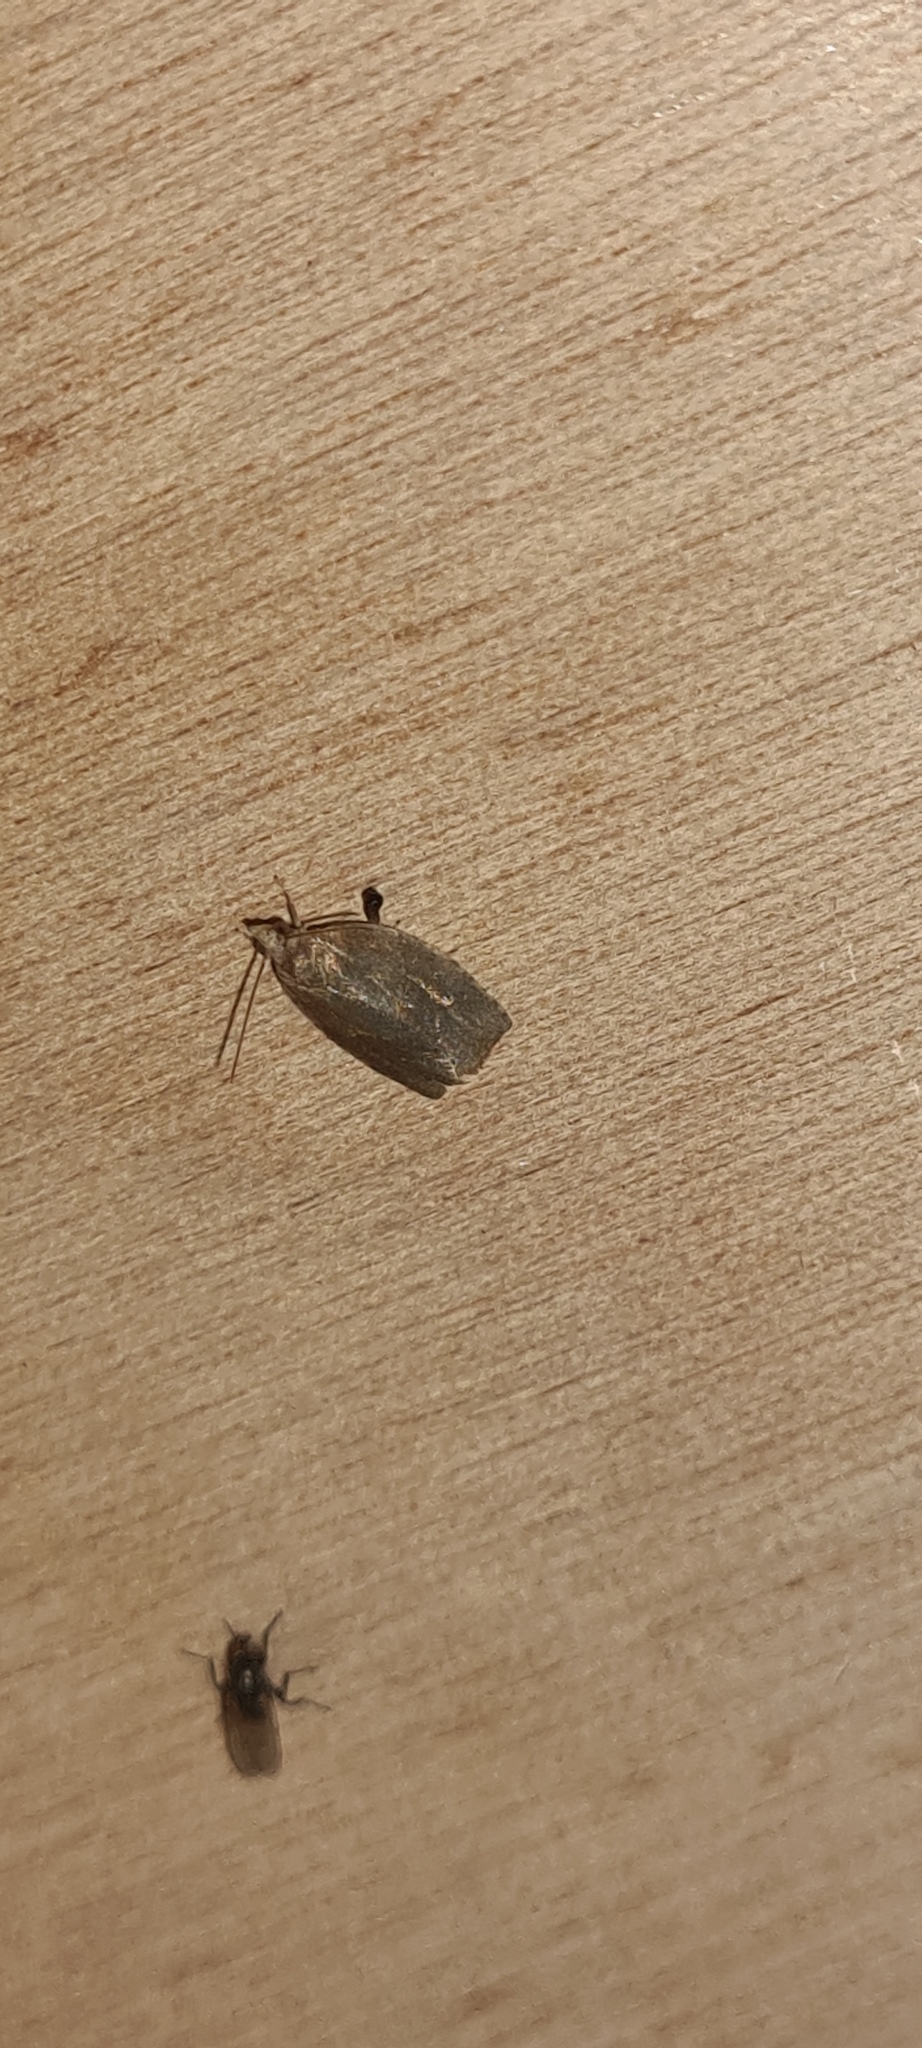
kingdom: Animalia
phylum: Arthropoda
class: Insecta
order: Lepidoptera
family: Tortricidae
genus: Pandemis
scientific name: Pandemis heparana
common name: Dark fruit-tree tortrix
